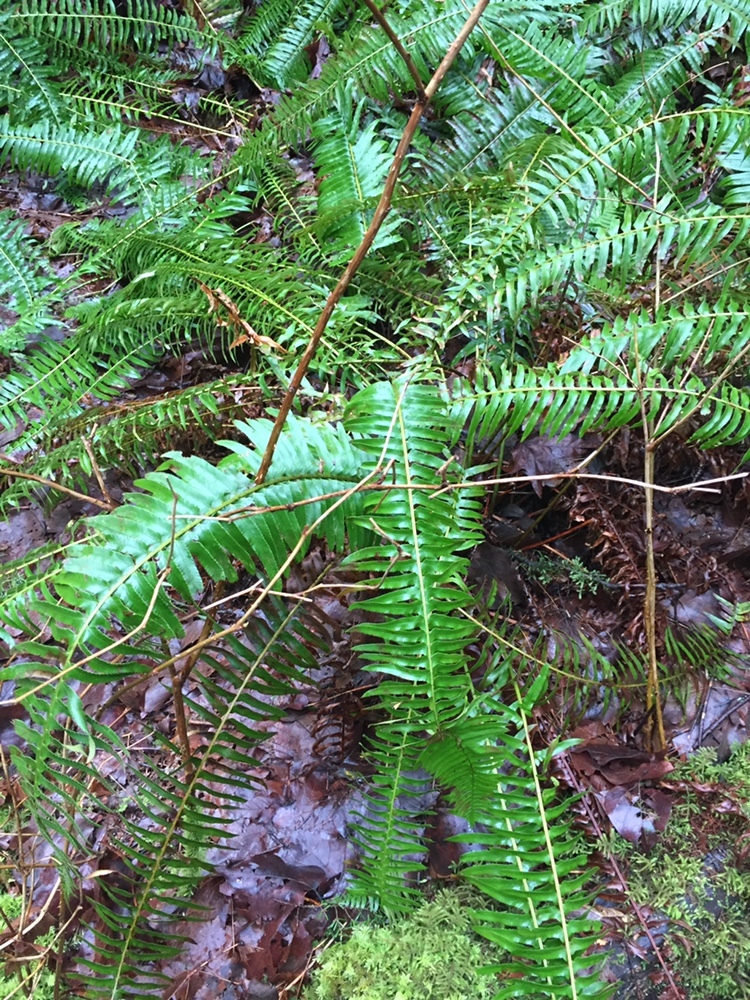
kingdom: Plantae
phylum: Tracheophyta
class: Polypodiopsida
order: Polypodiales
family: Dryopteridaceae
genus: Polystichum
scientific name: Polystichum munitum
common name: Western sword-fern
